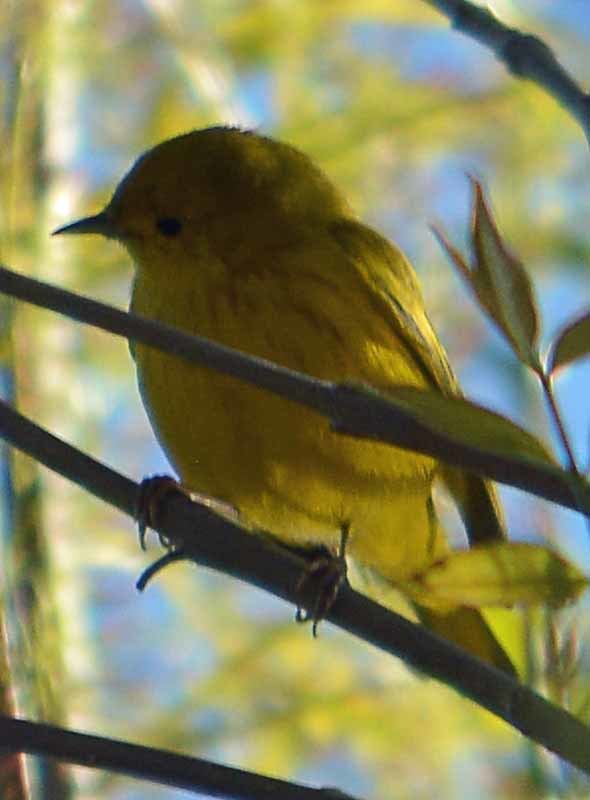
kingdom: Animalia
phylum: Chordata
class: Aves
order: Passeriformes
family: Parulidae
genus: Setophaga
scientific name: Setophaga petechia
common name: Yellow warbler
